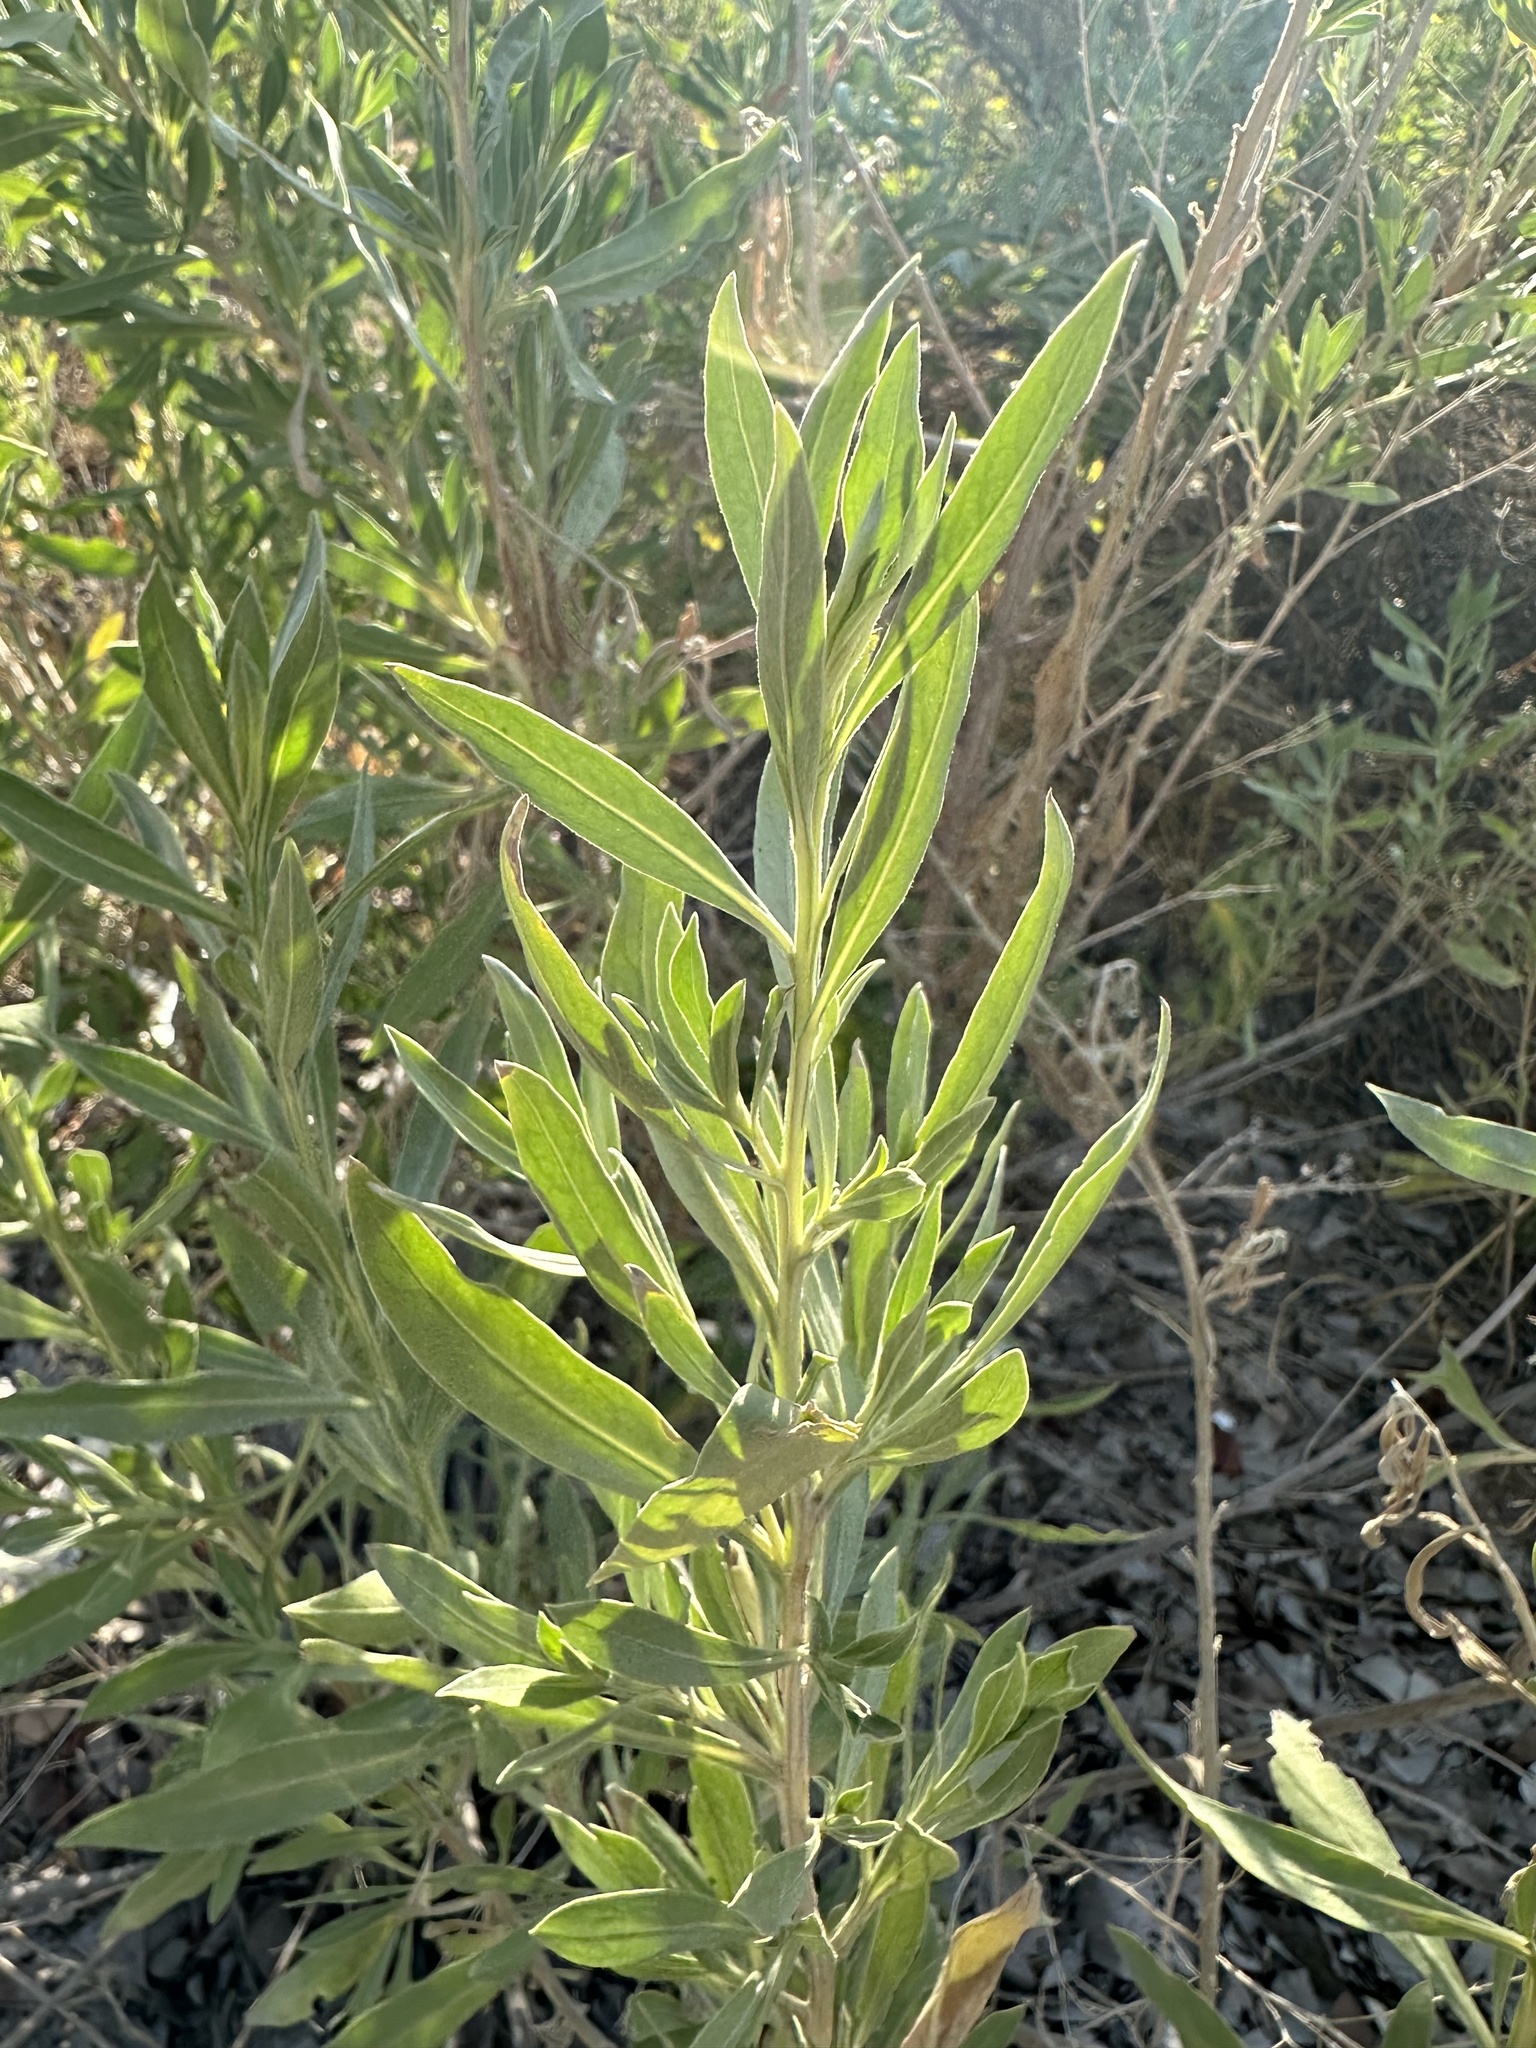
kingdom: Plantae
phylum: Tracheophyta
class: Magnoliopsida
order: Asterales
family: Asteraceae
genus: Pechuel-loeschea
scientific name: Pechuel-loeschea leubnitziae
